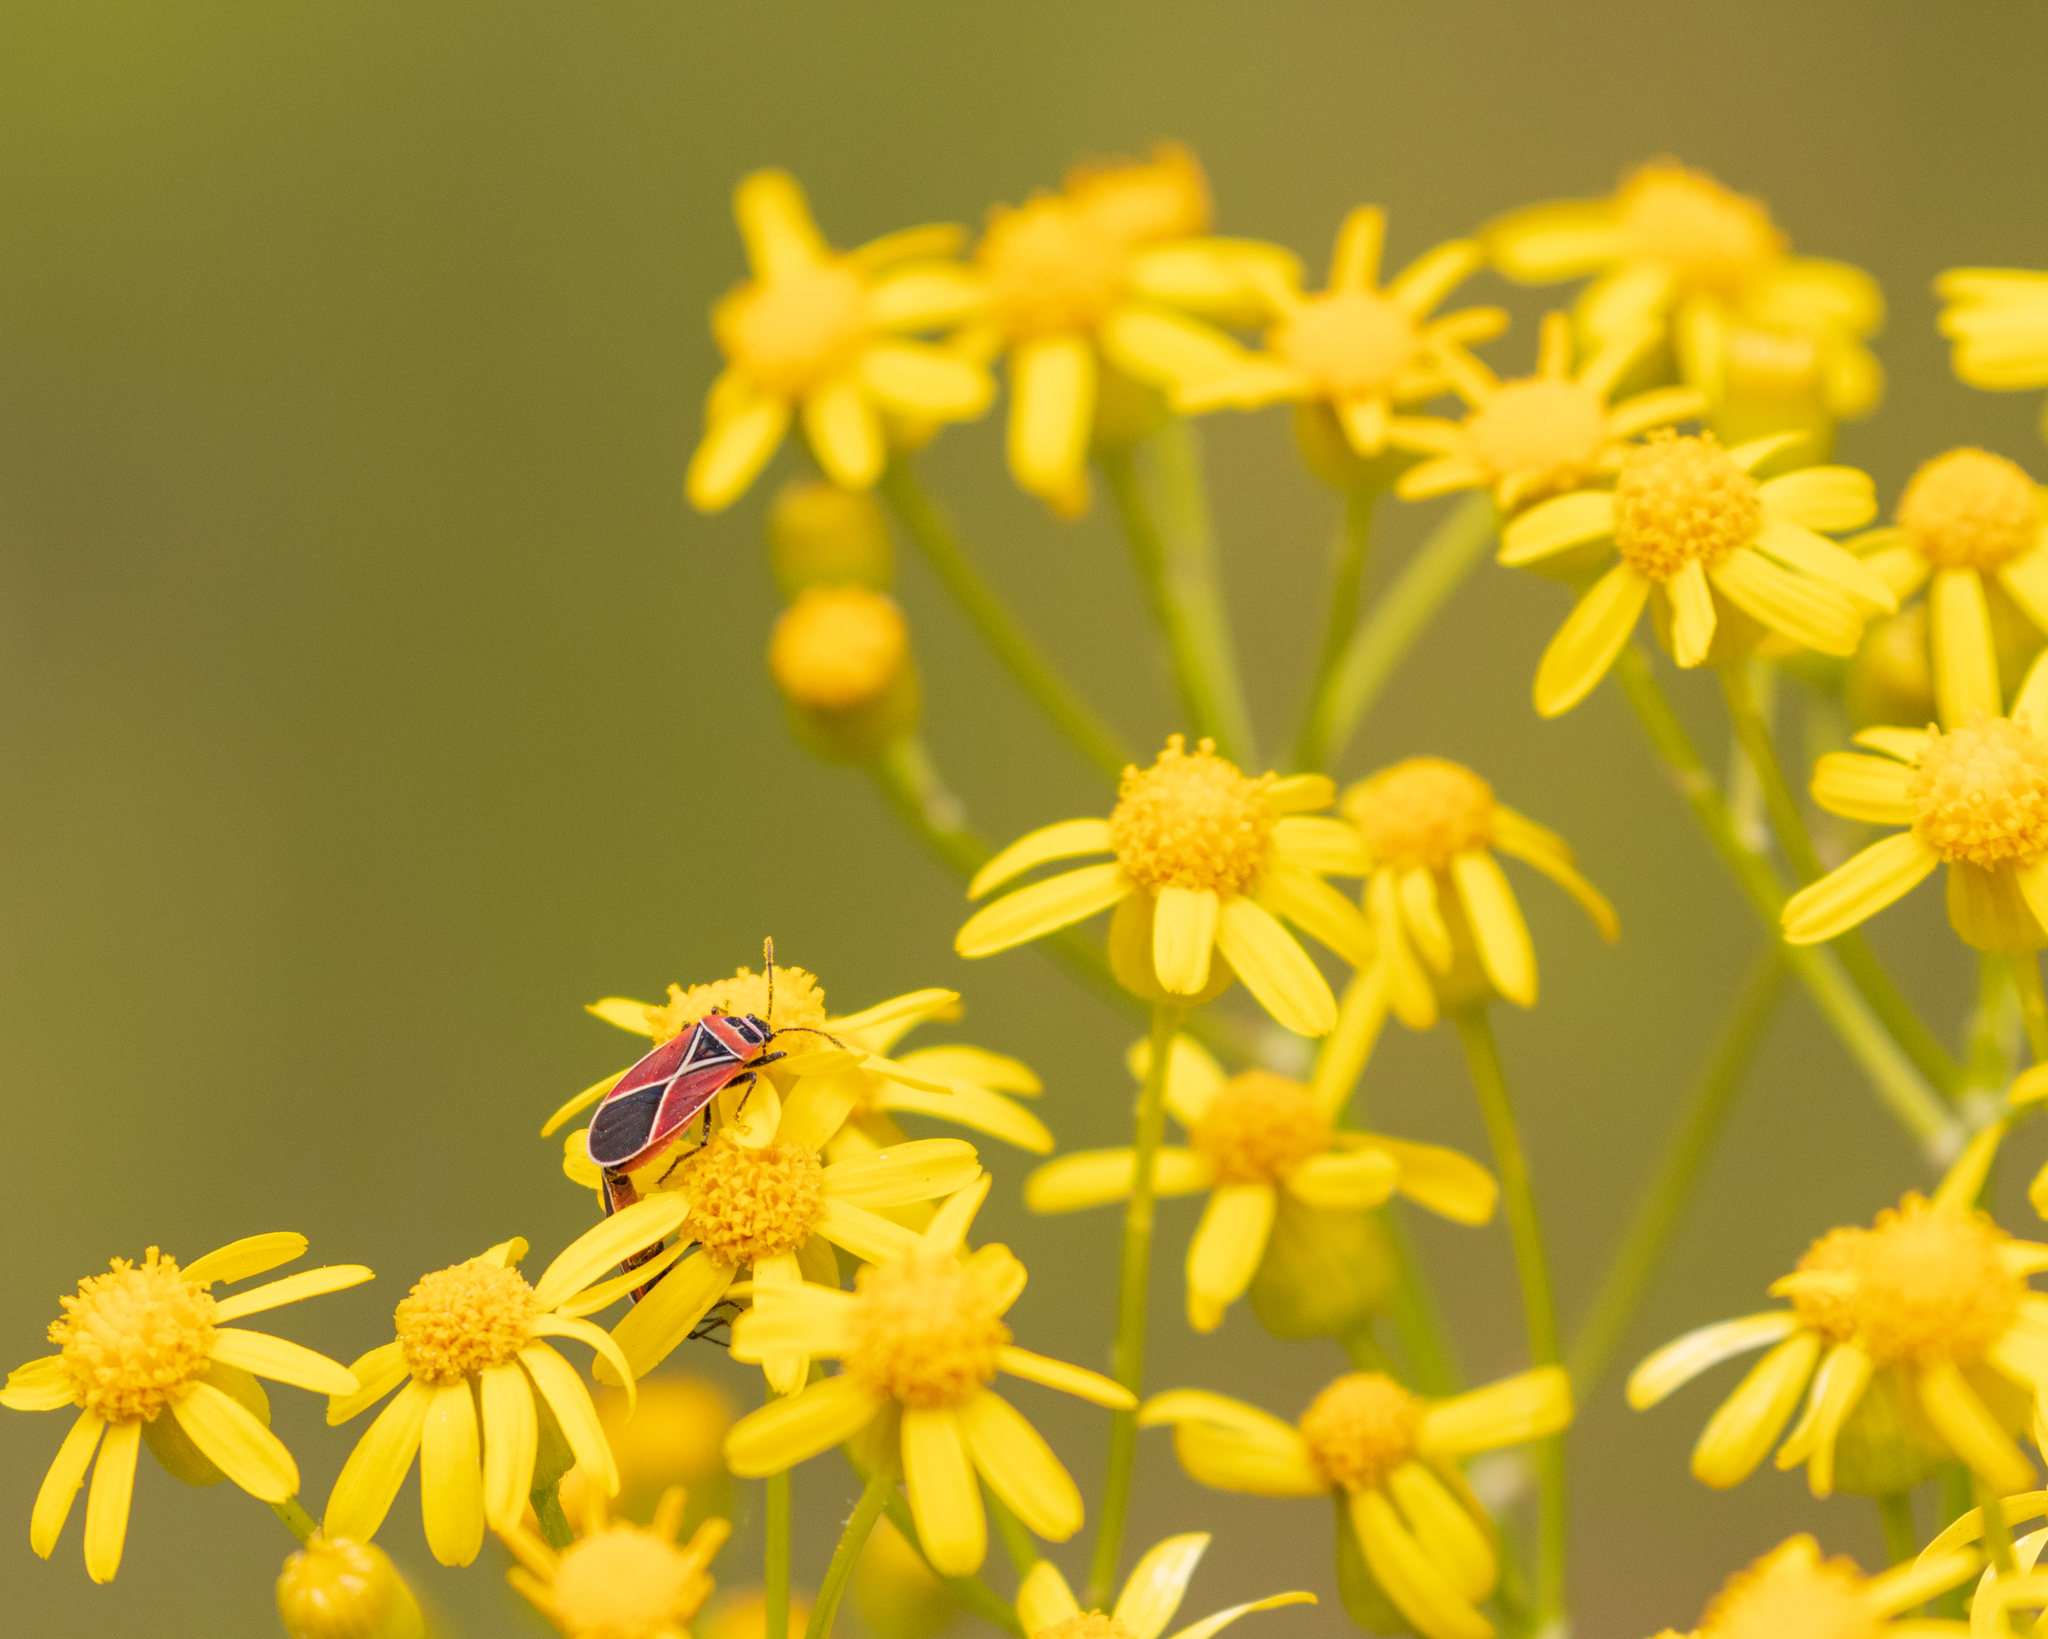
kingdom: Animalia
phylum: Arthropoda
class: Insecta
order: Hemiptera
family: Lygaeidae
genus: Neacoryphus
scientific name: Neacoryphus bicrucis
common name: Lygaeid bug
